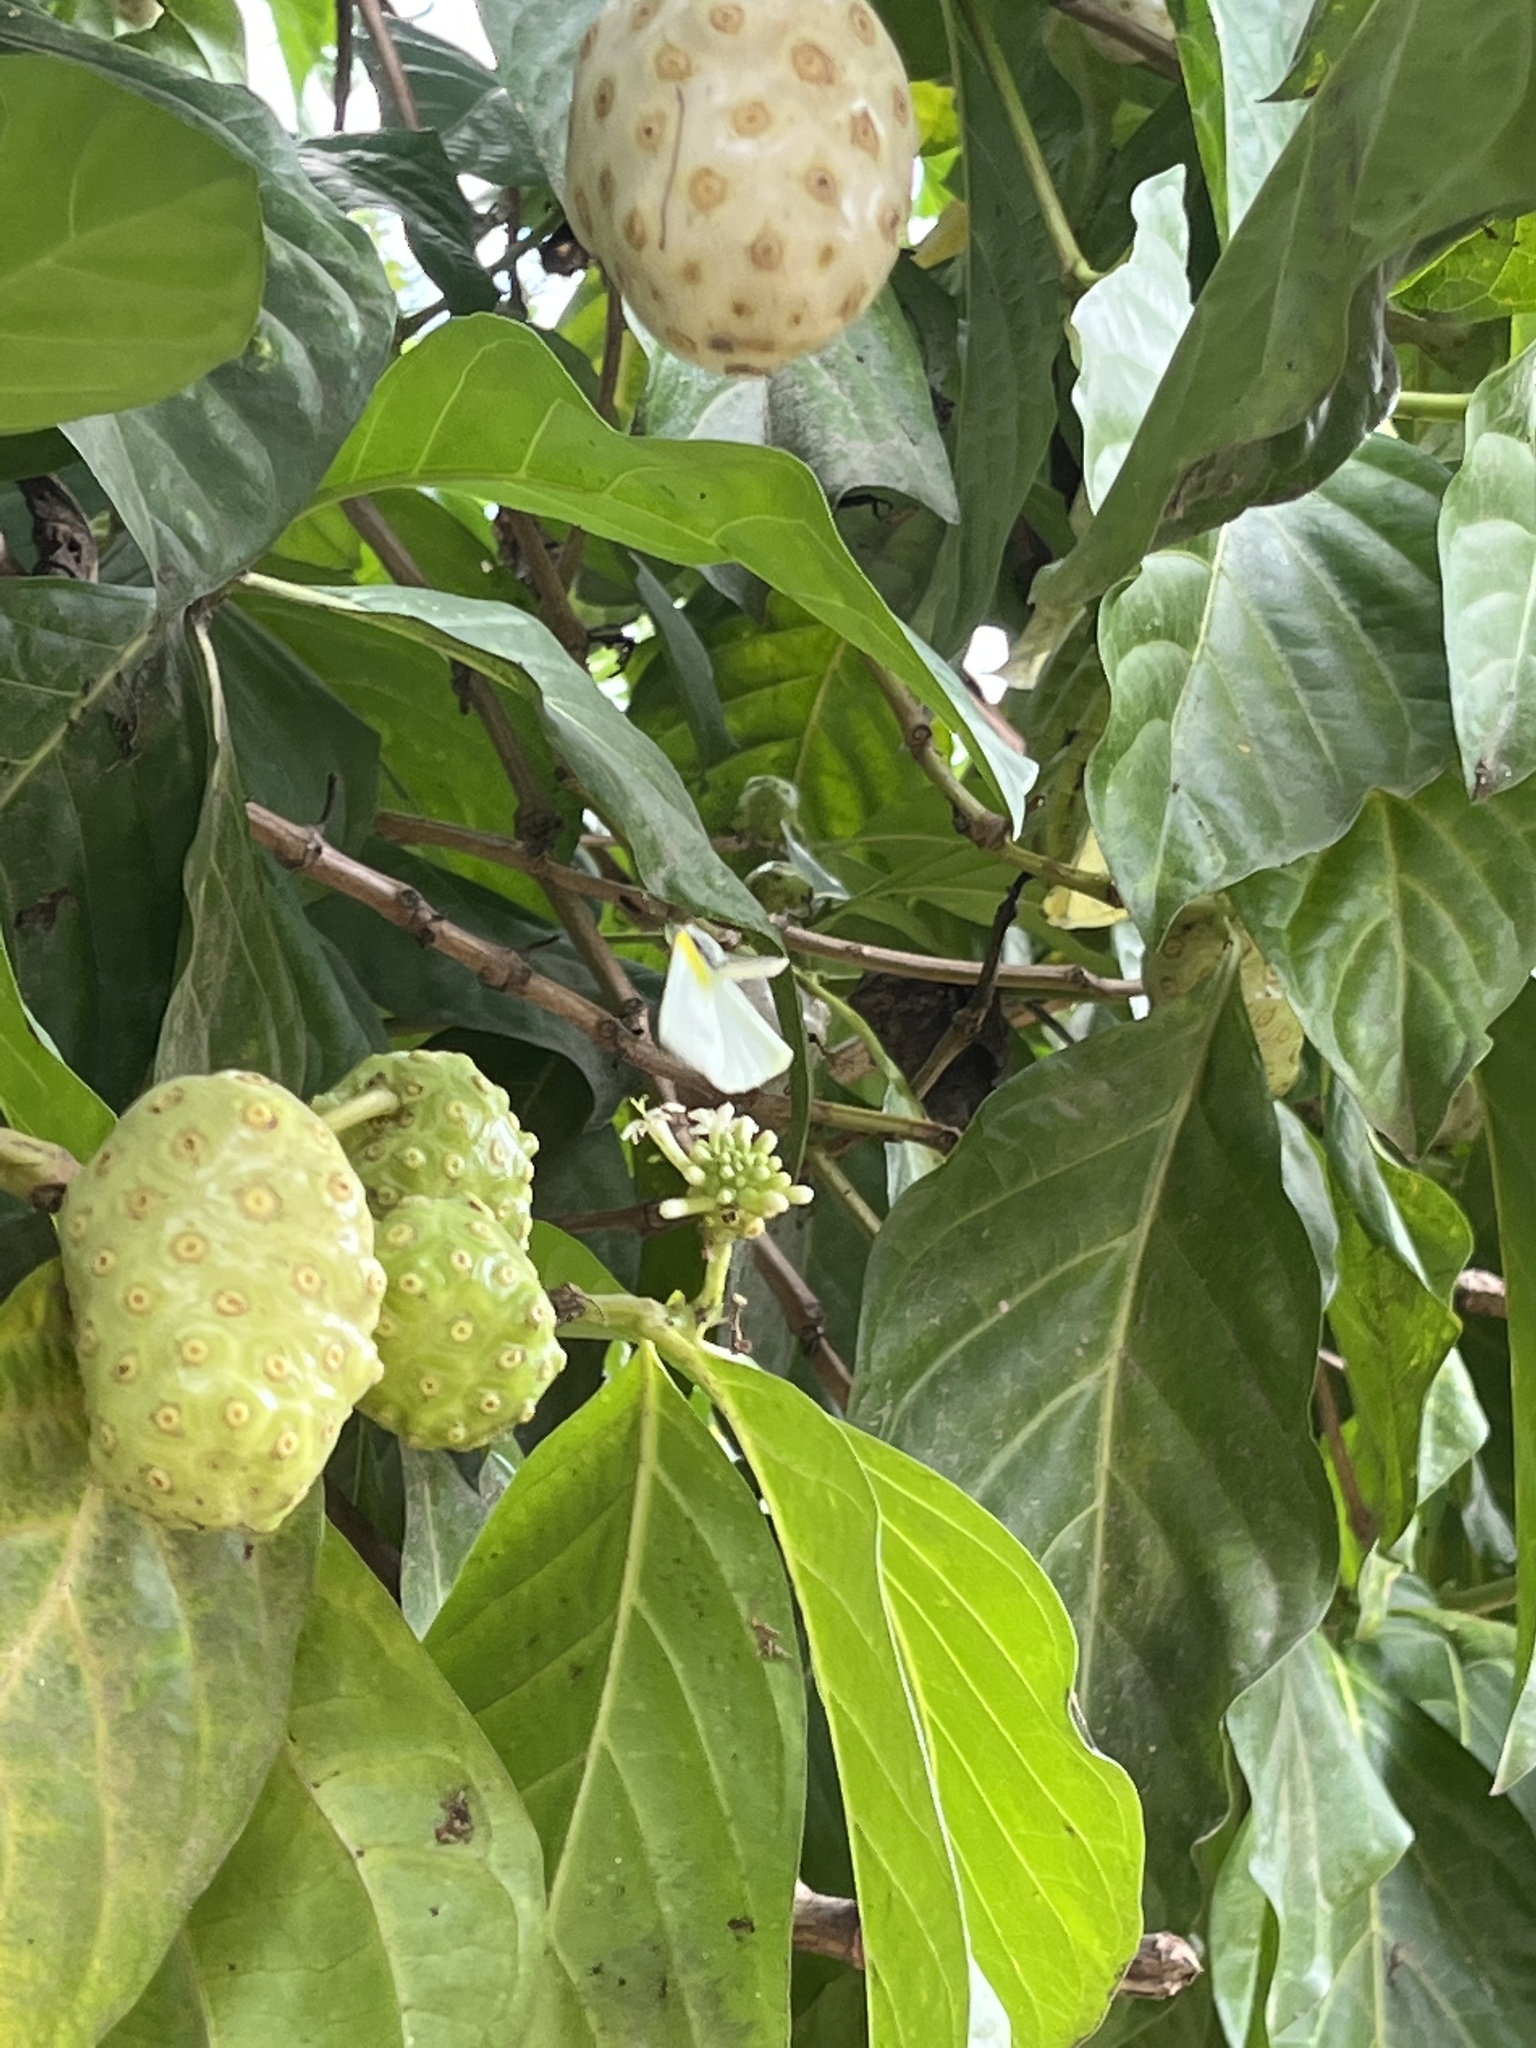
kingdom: Animalia
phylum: Arthropoda
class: Insecta
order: Lepidoptera
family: Pieridae
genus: Kricogonia
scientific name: Kricogonia lyside
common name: Guayacan sulphur,
